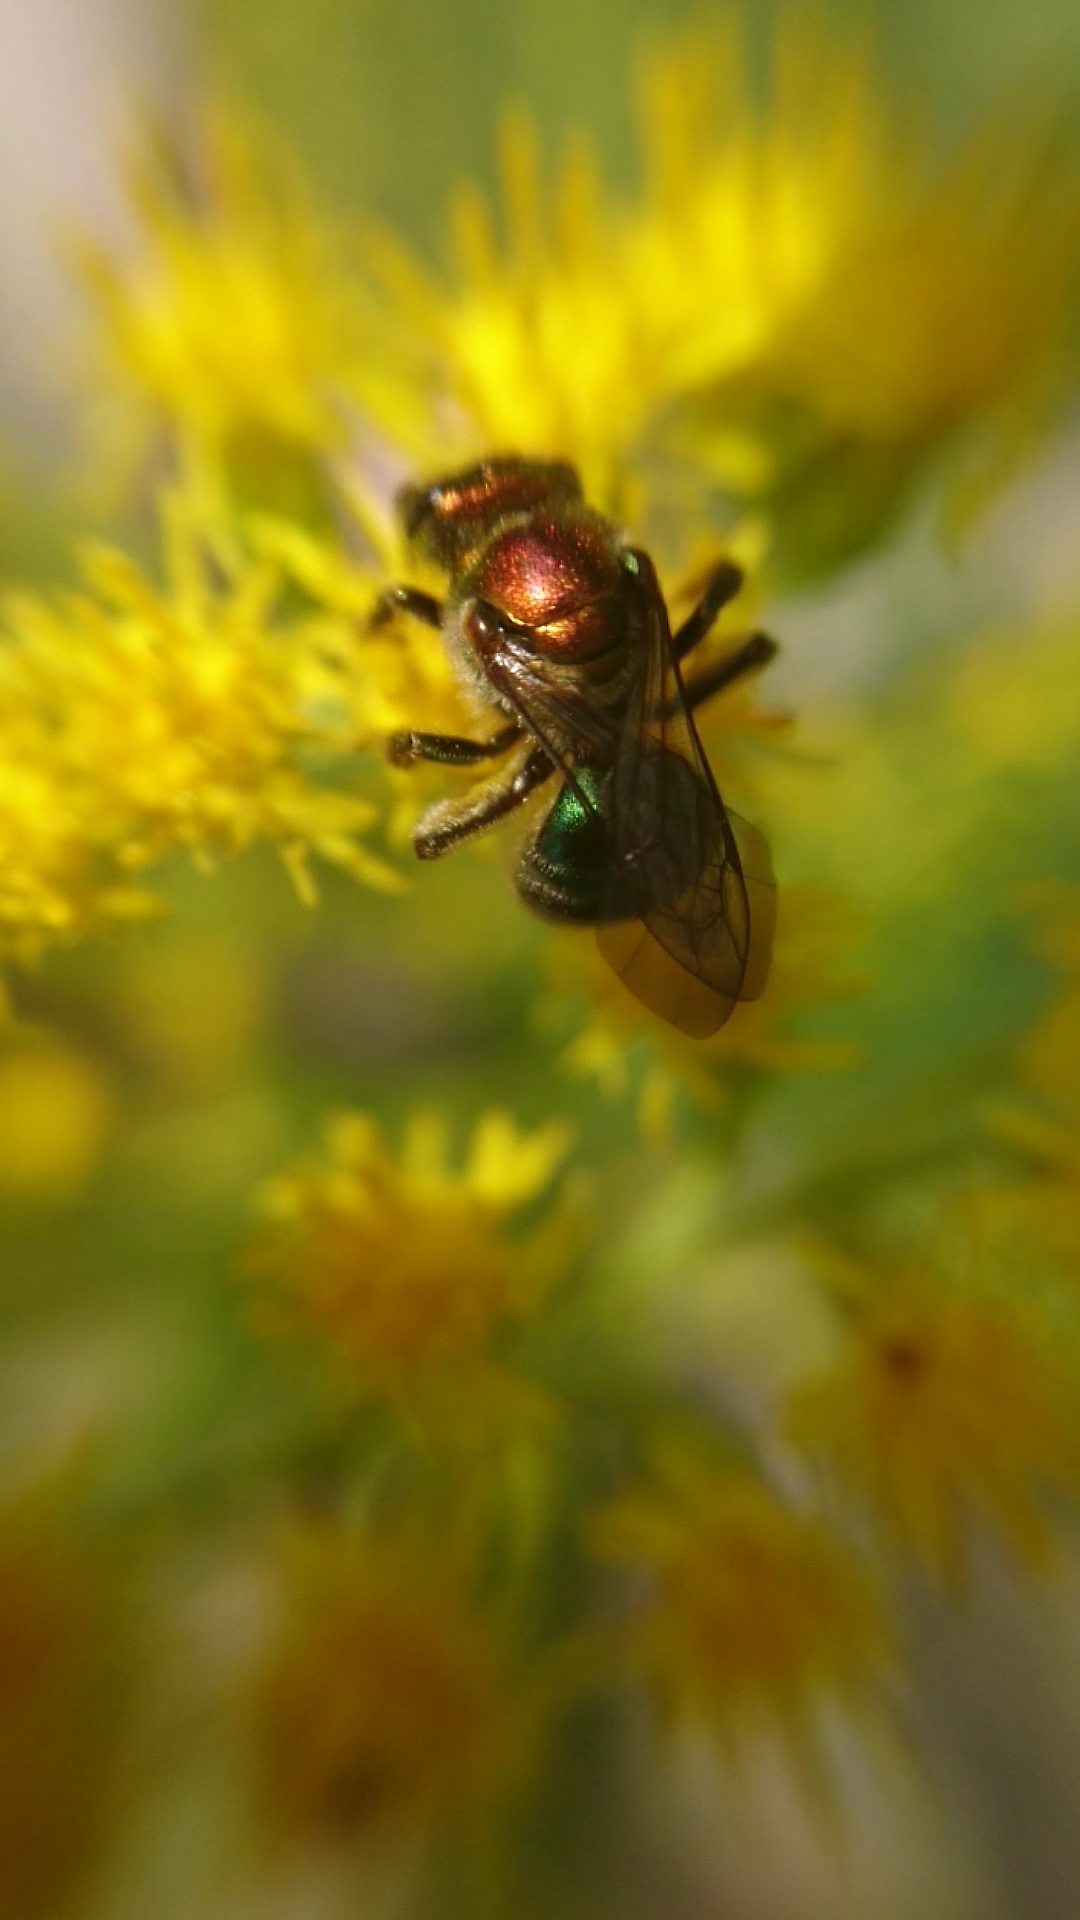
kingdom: Animalia
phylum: Arthropoda
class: Insecta
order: Hymenoptera
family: Halictidae
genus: Augochloropsis
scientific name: Augochloropsis tupacamaru
